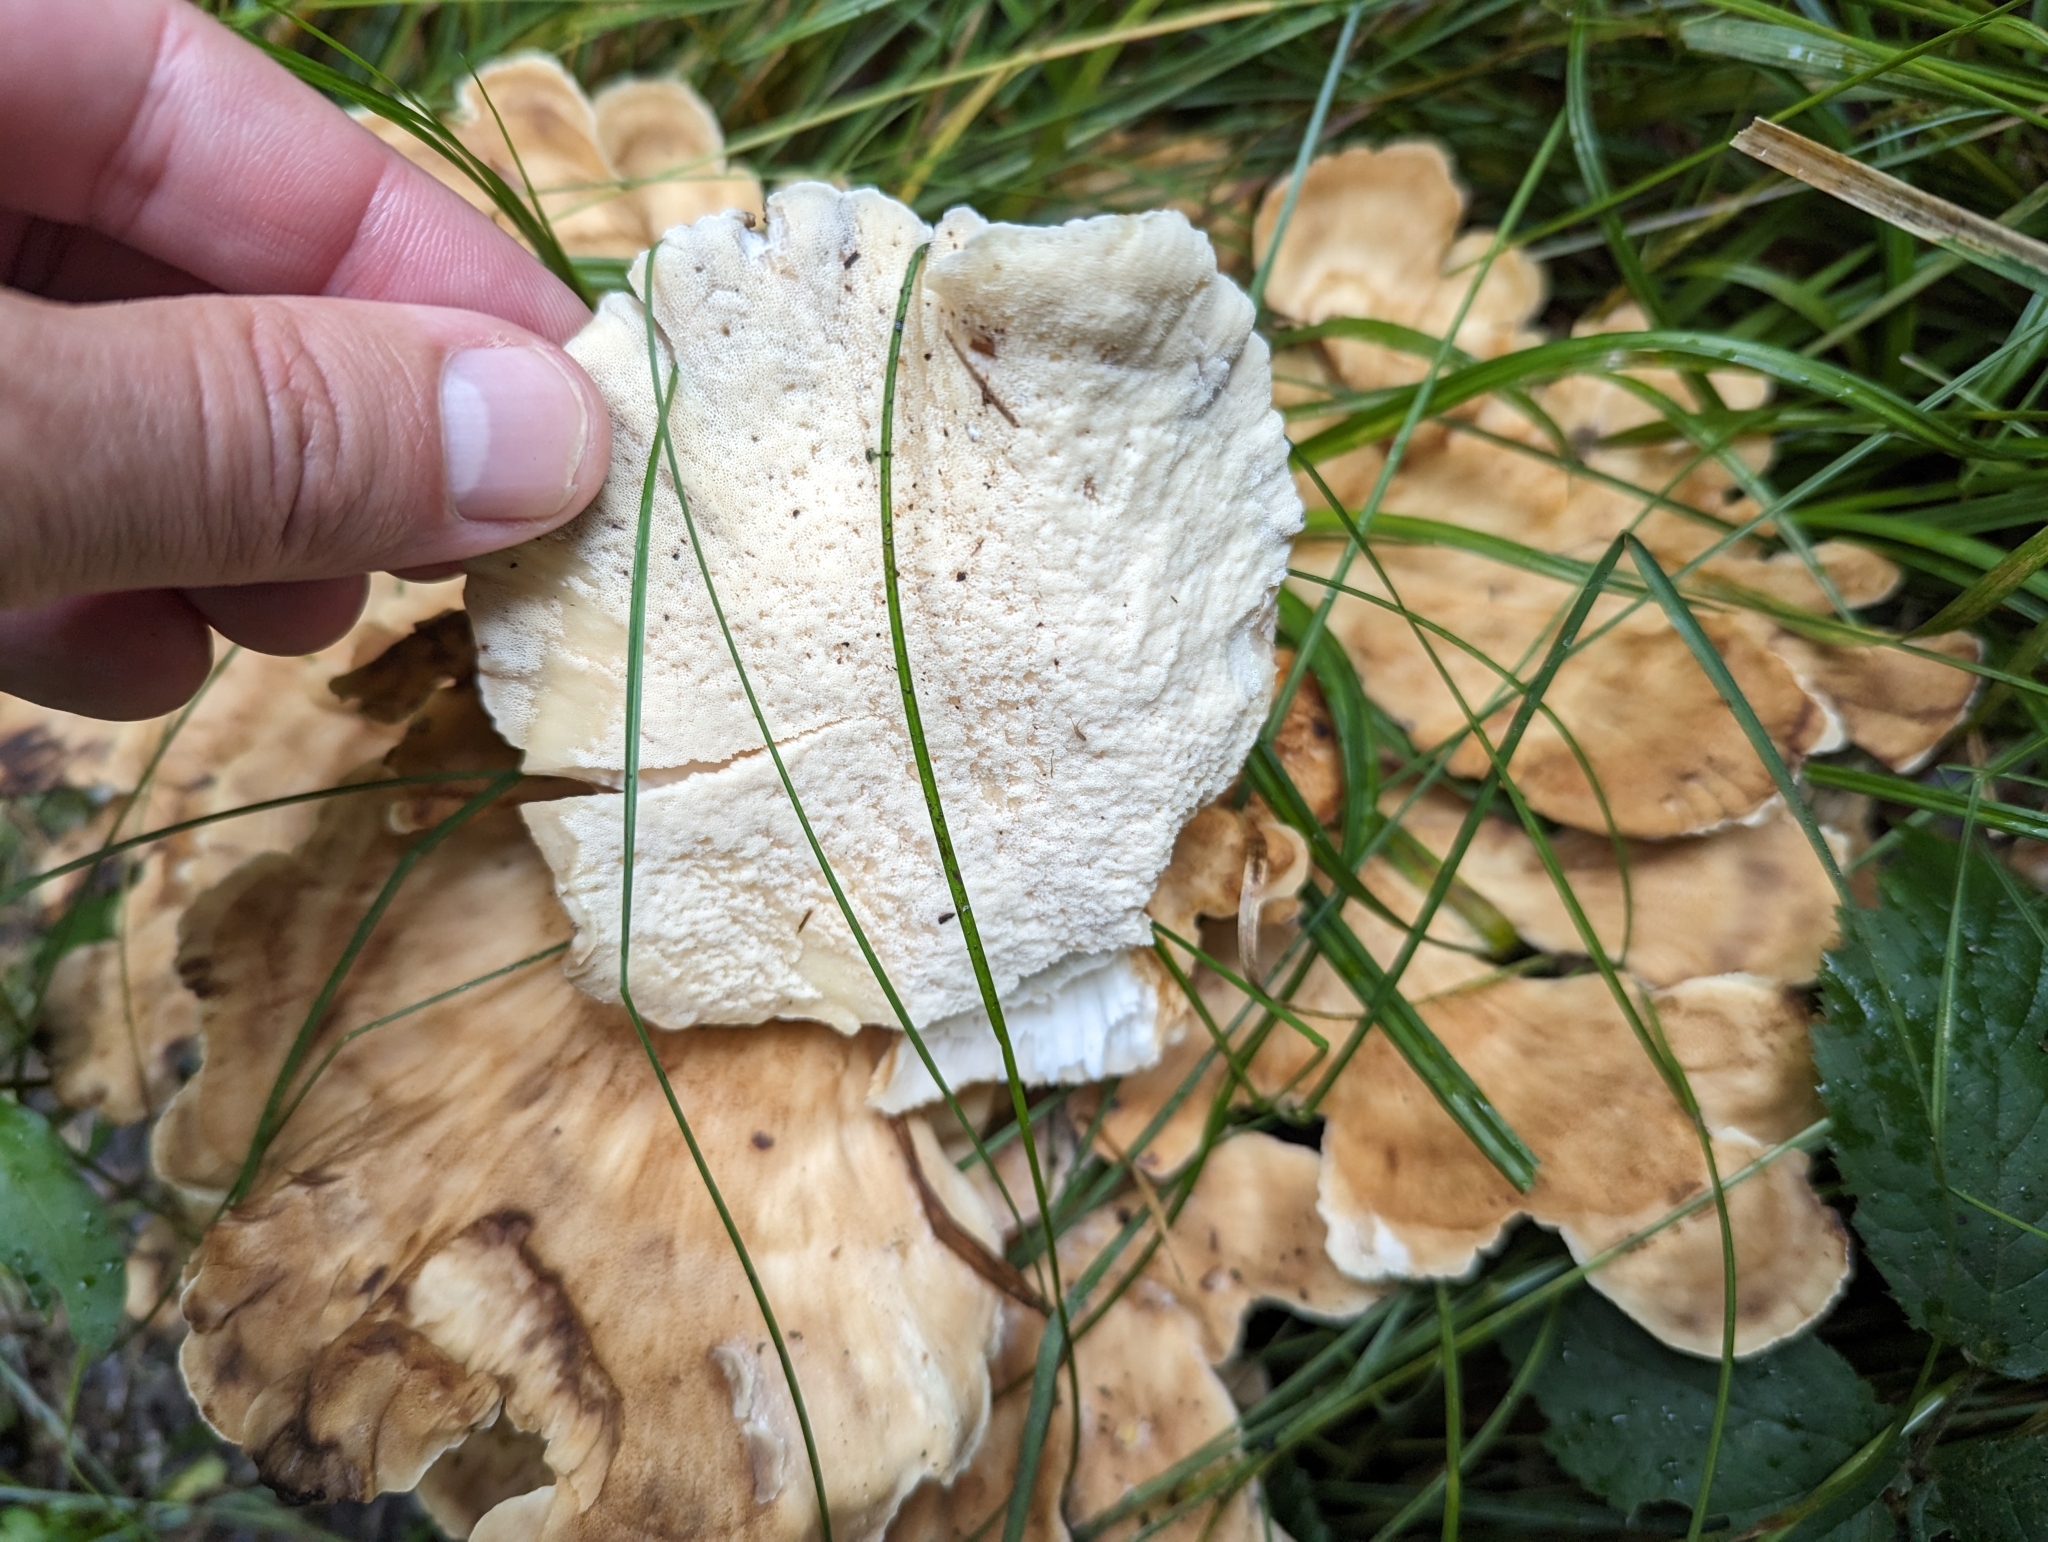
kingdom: Fungi
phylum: Basidiomycota
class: Agaricomycetes
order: Polyporales
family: Meripilaceae
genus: Meripilus
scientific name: Meripilus giganteus
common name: Giant polypore
